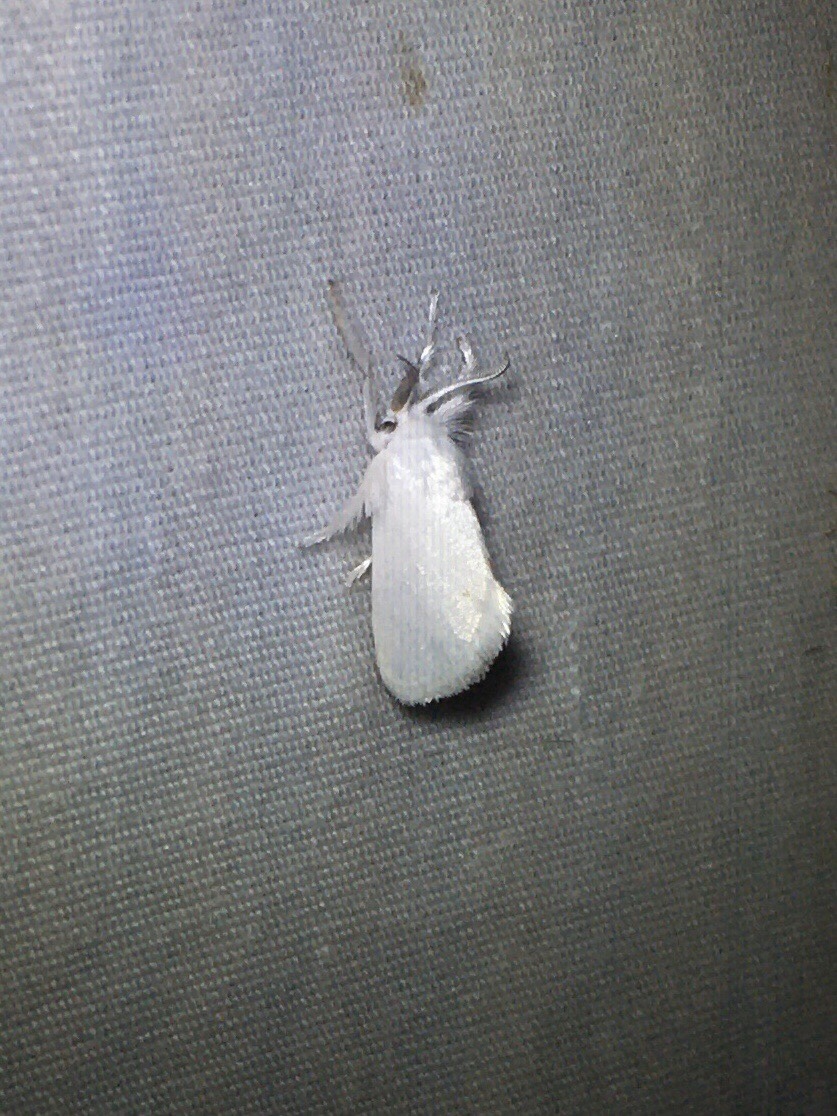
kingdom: Animalia
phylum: Arthropoda
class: Insecta
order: Lepidoptera
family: Limacodidae
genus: Alarodia
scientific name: Alarodia slossoniae
